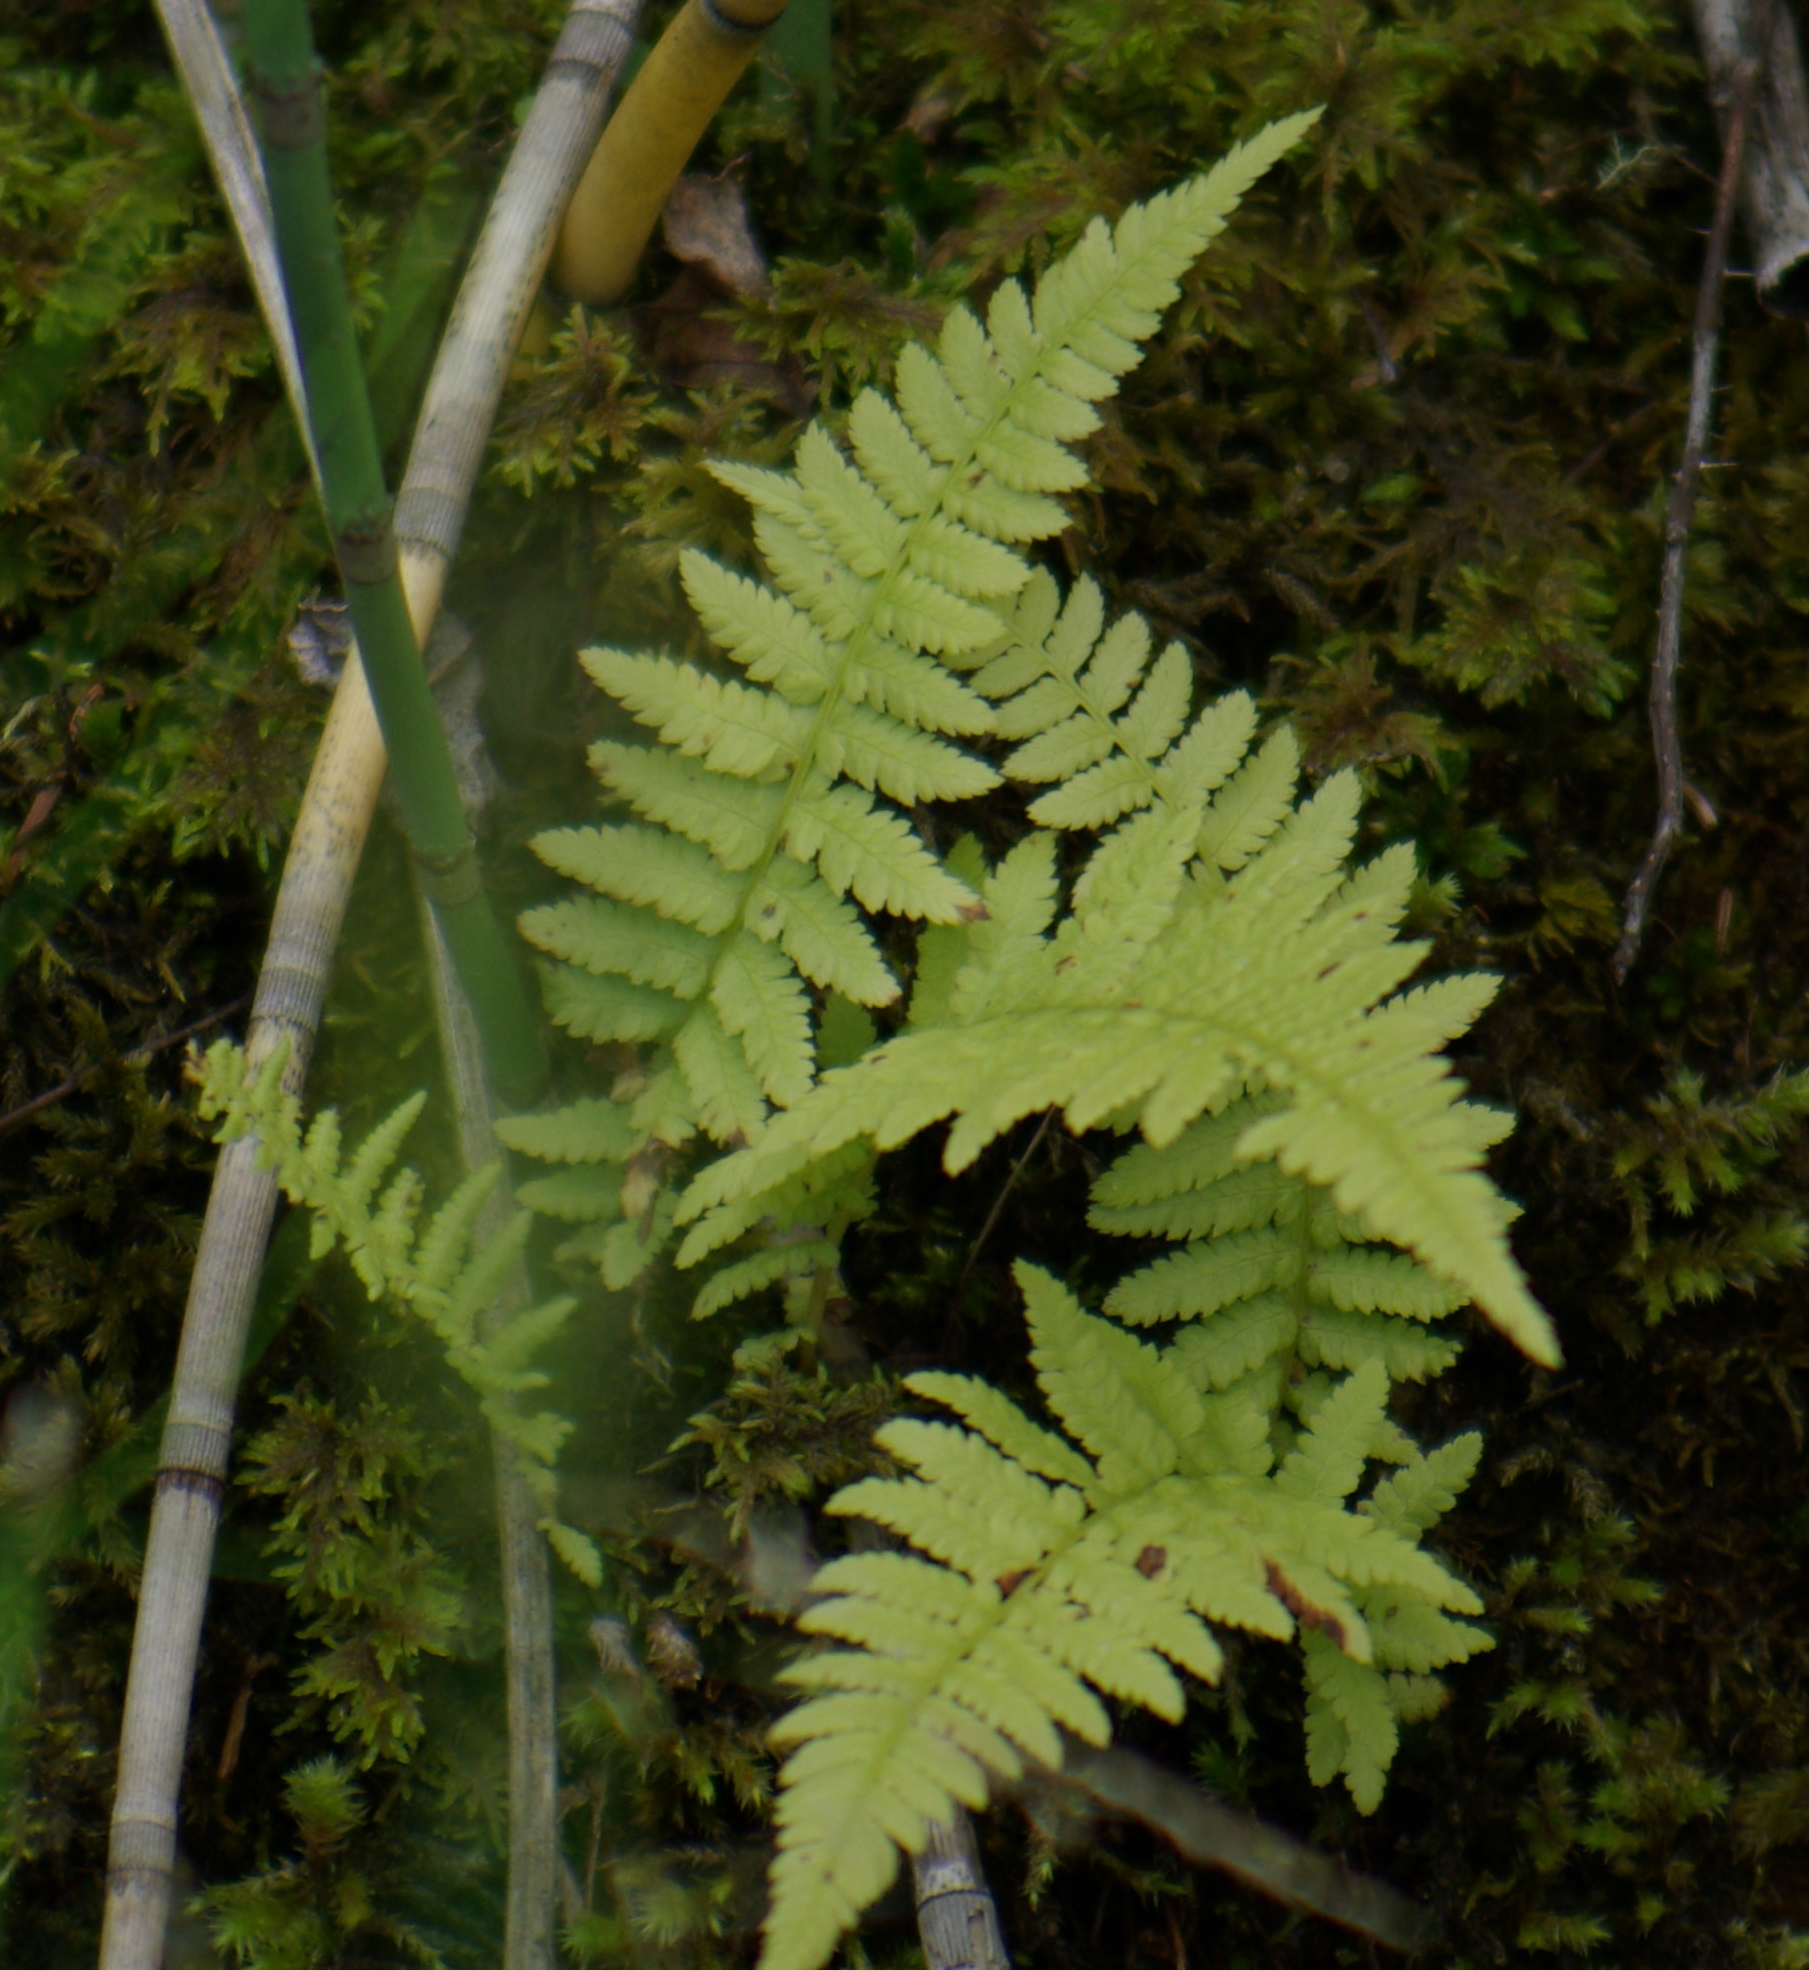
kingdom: Plantae
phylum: Tracheophyta
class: Polypodiopsida
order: Polypodiales
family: Athyriaceae
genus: Athyrium
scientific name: Athyrium angustum
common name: Northern lady fern
